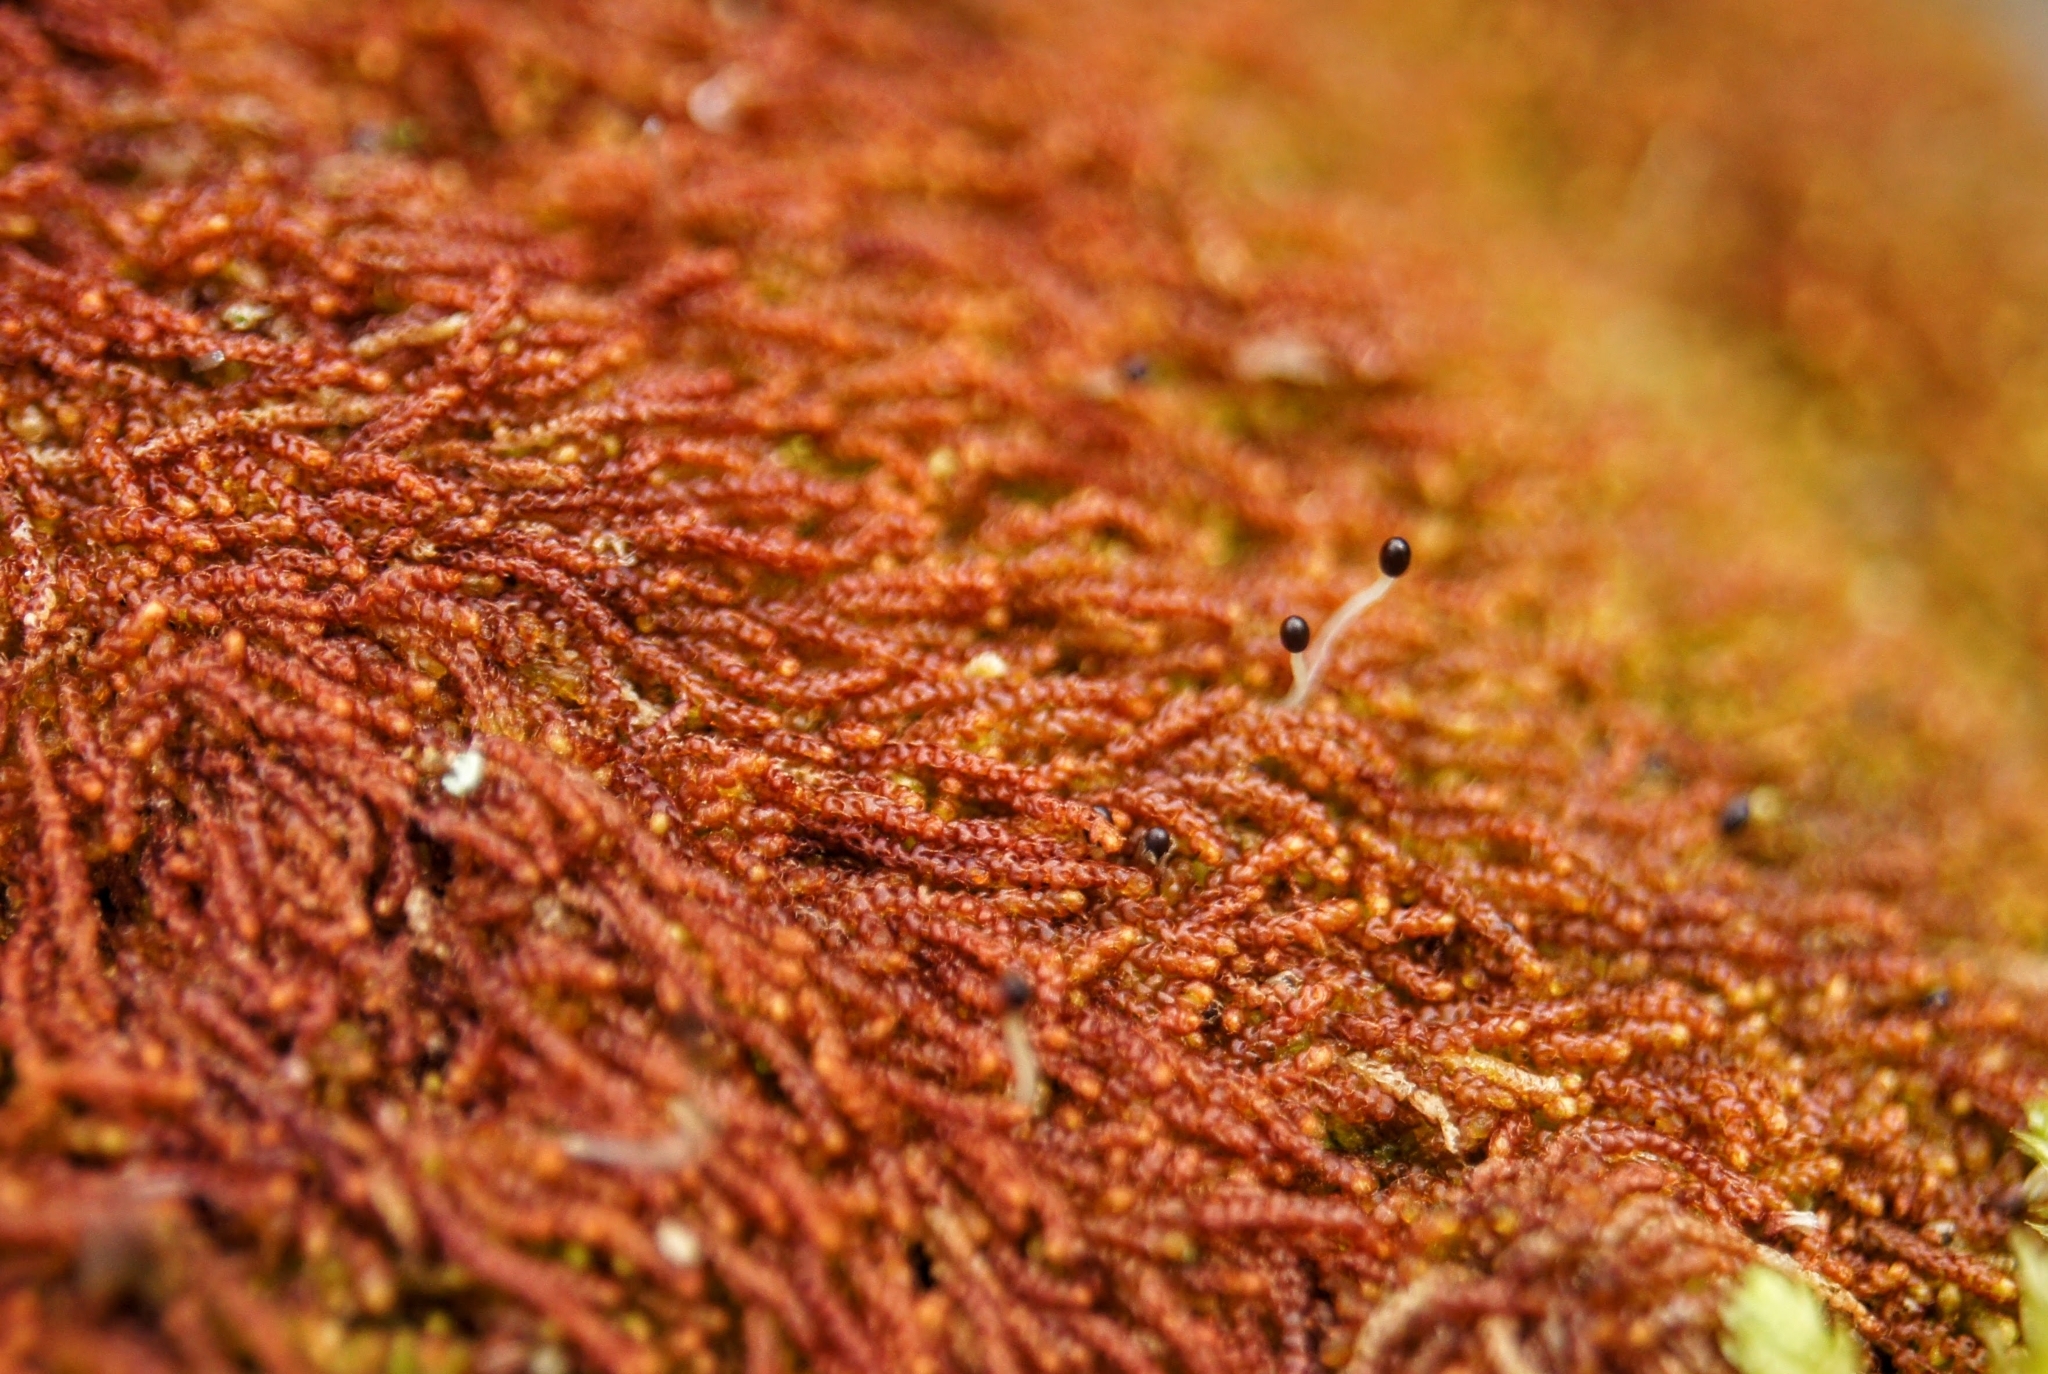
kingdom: Plantae
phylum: Marchantiophyta
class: Jungermanniopsida
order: Jungermanniales
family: Cephaloziaceae
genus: Nowellia
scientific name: Nowellia curvifolia
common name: Wood rustwort
